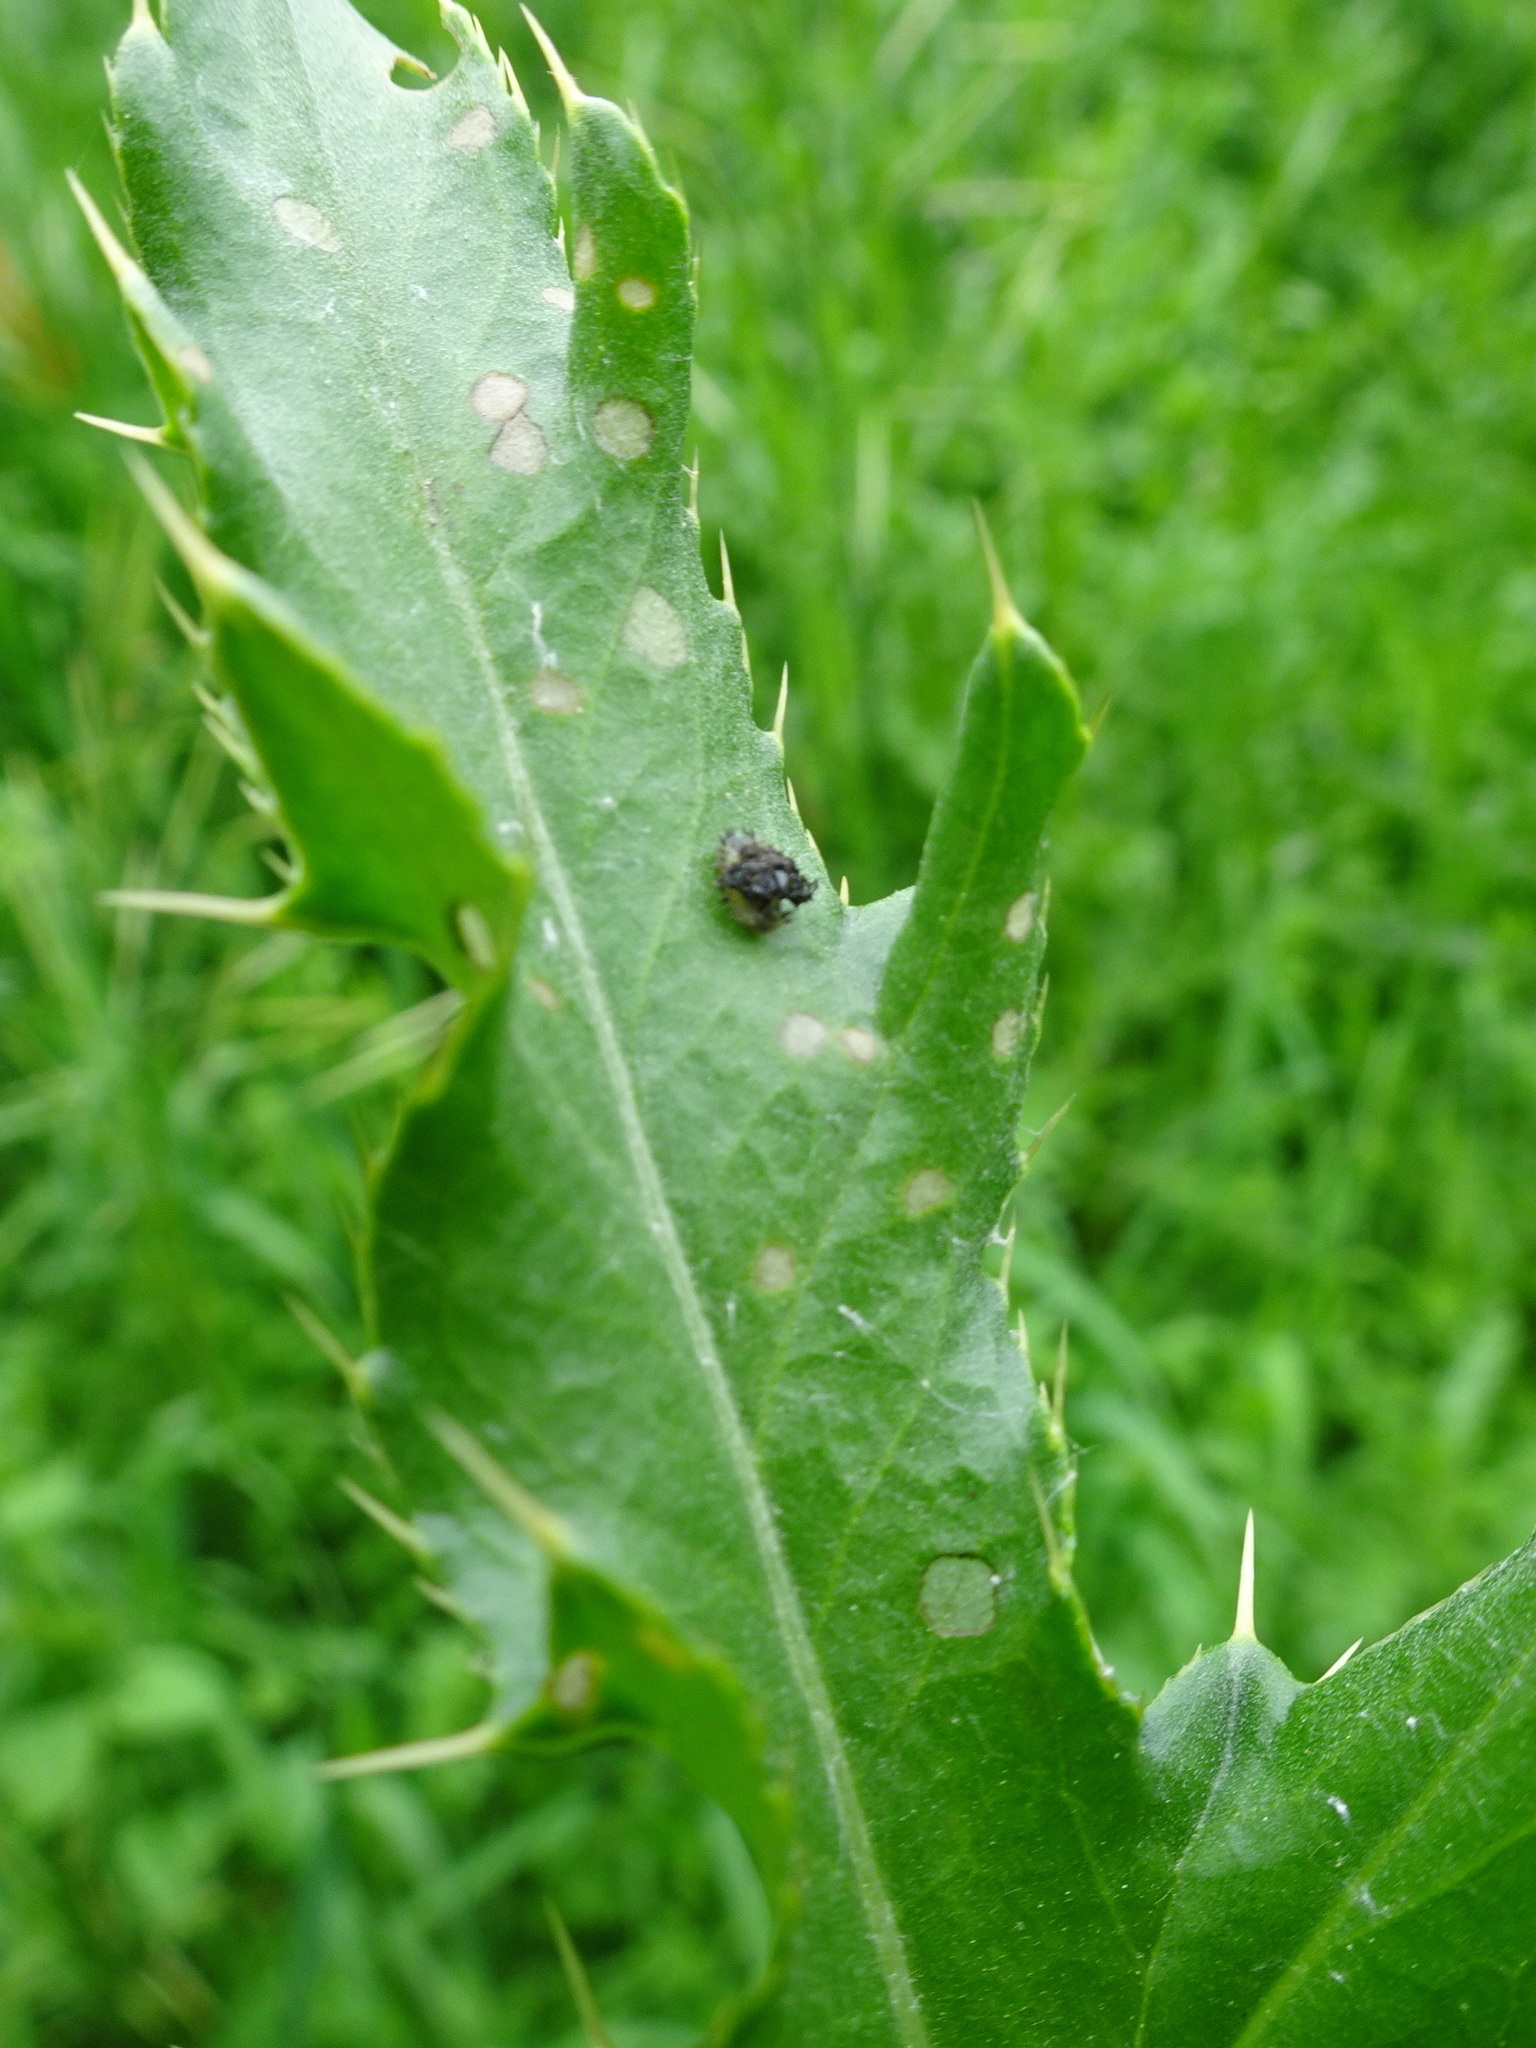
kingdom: Animalia
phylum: Arthropoda
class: Insecta
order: Coleoptera
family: Chrysomelidae
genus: Cassida
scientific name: Cassida rubiginosa
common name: Thistle tortoise beetle
